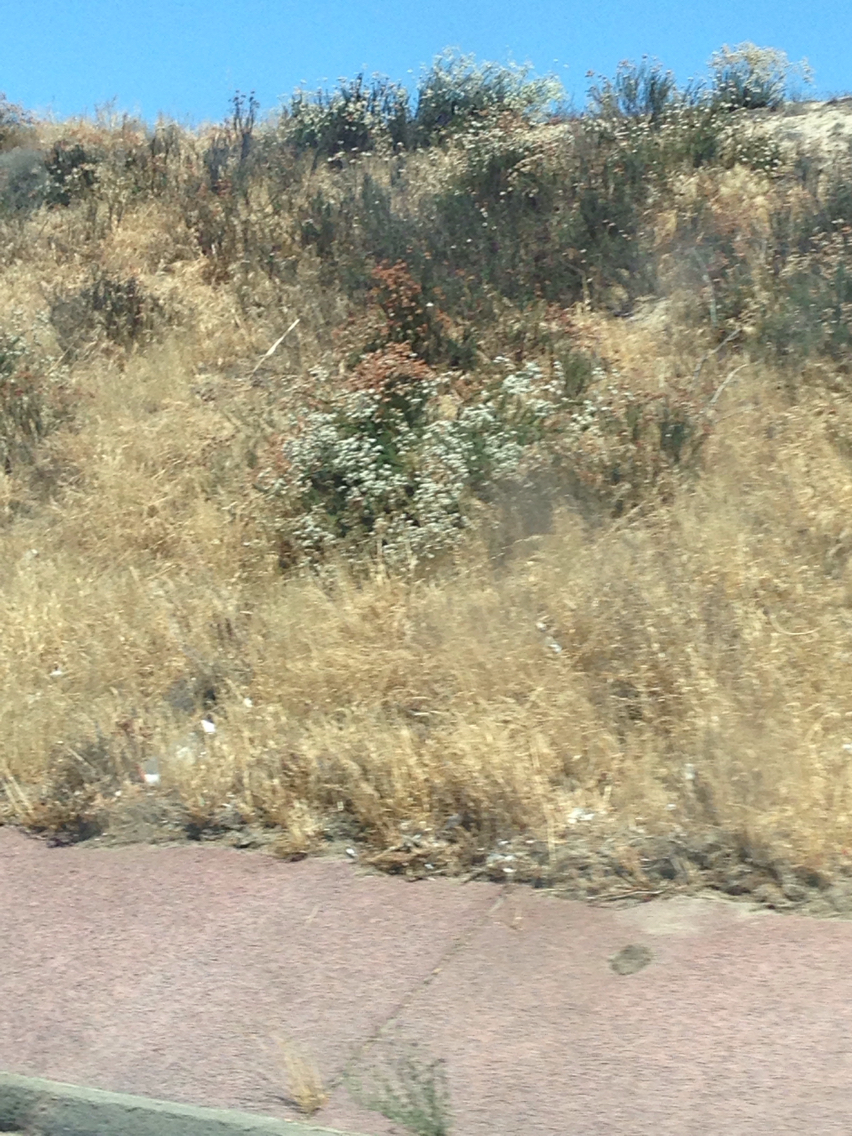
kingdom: Plantae
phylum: Tracheophyta
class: Magnoliopsida
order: Caryophyllales
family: Polygonaceae
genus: Eriogonum
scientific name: Eriogonum fasciculatum
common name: California wild buckwheat
